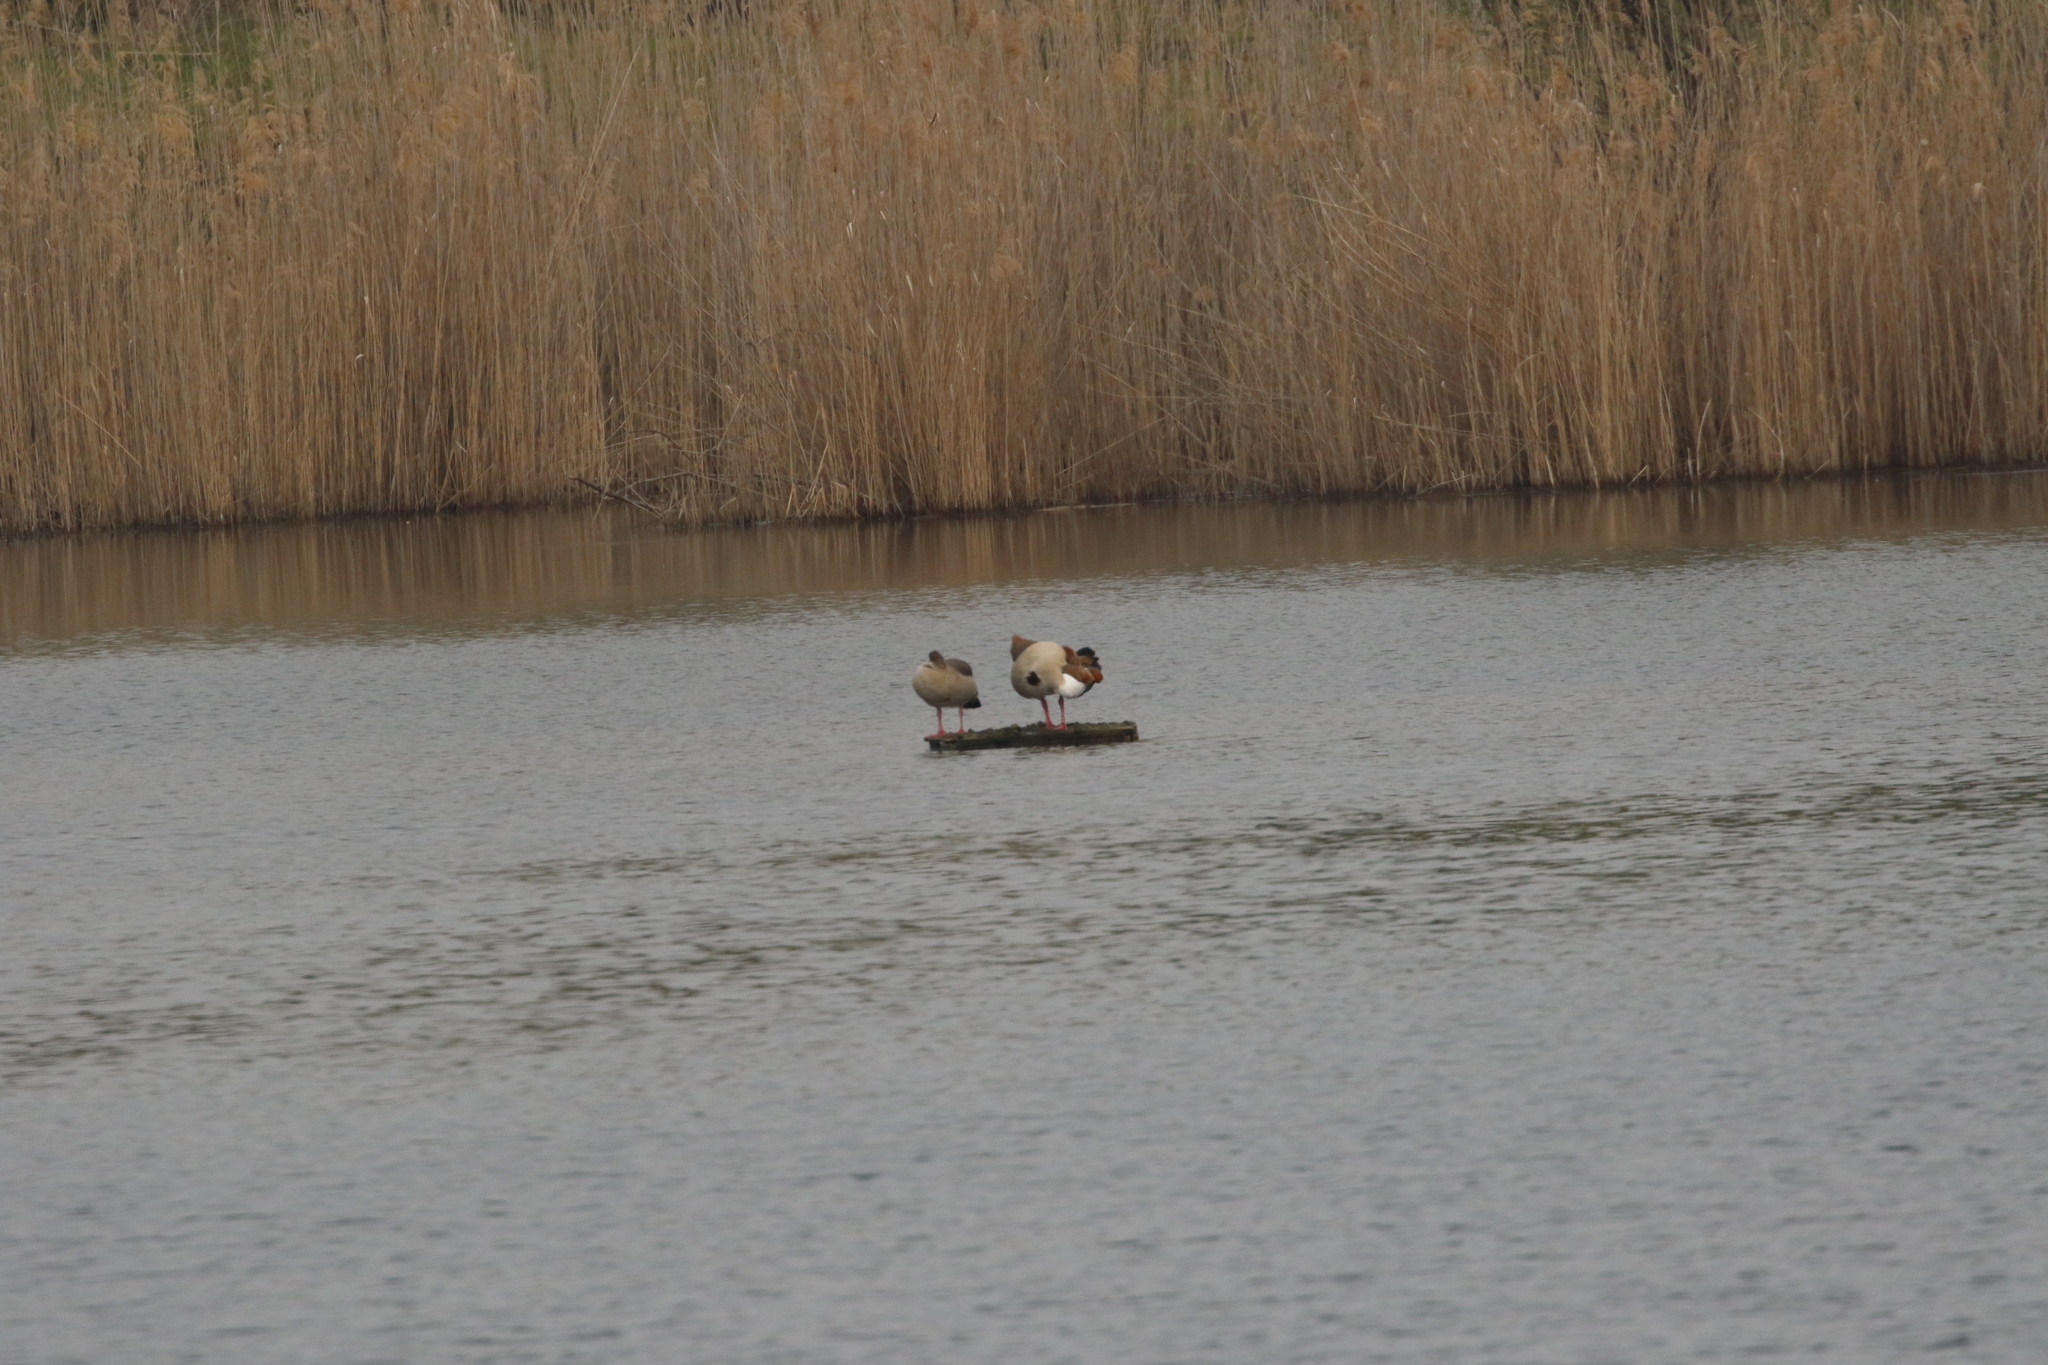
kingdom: Animalia
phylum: Chordata
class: Aves
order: Anseriformes
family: Anatidae
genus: Alopochen
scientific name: Alopochen aegyptiaca
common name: Egyptian goose
